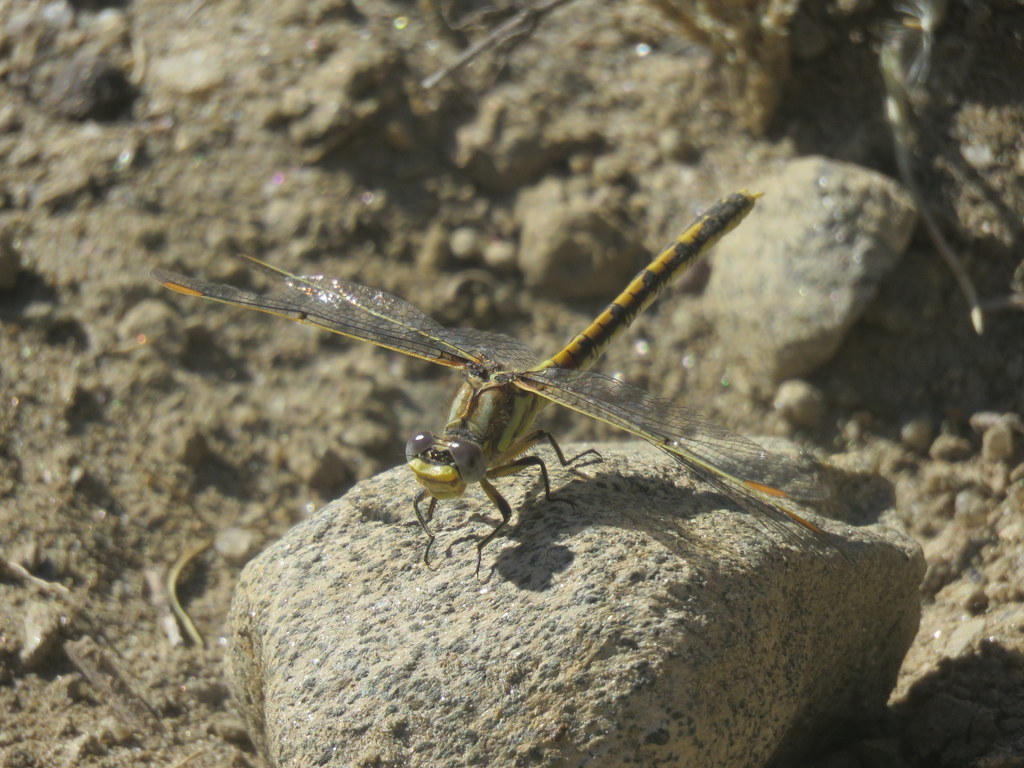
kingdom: Animalia
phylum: Arthropoda
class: Insecta
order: Odonata
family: Gomphidae
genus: Progomphus
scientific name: Progomphus joergenseni
